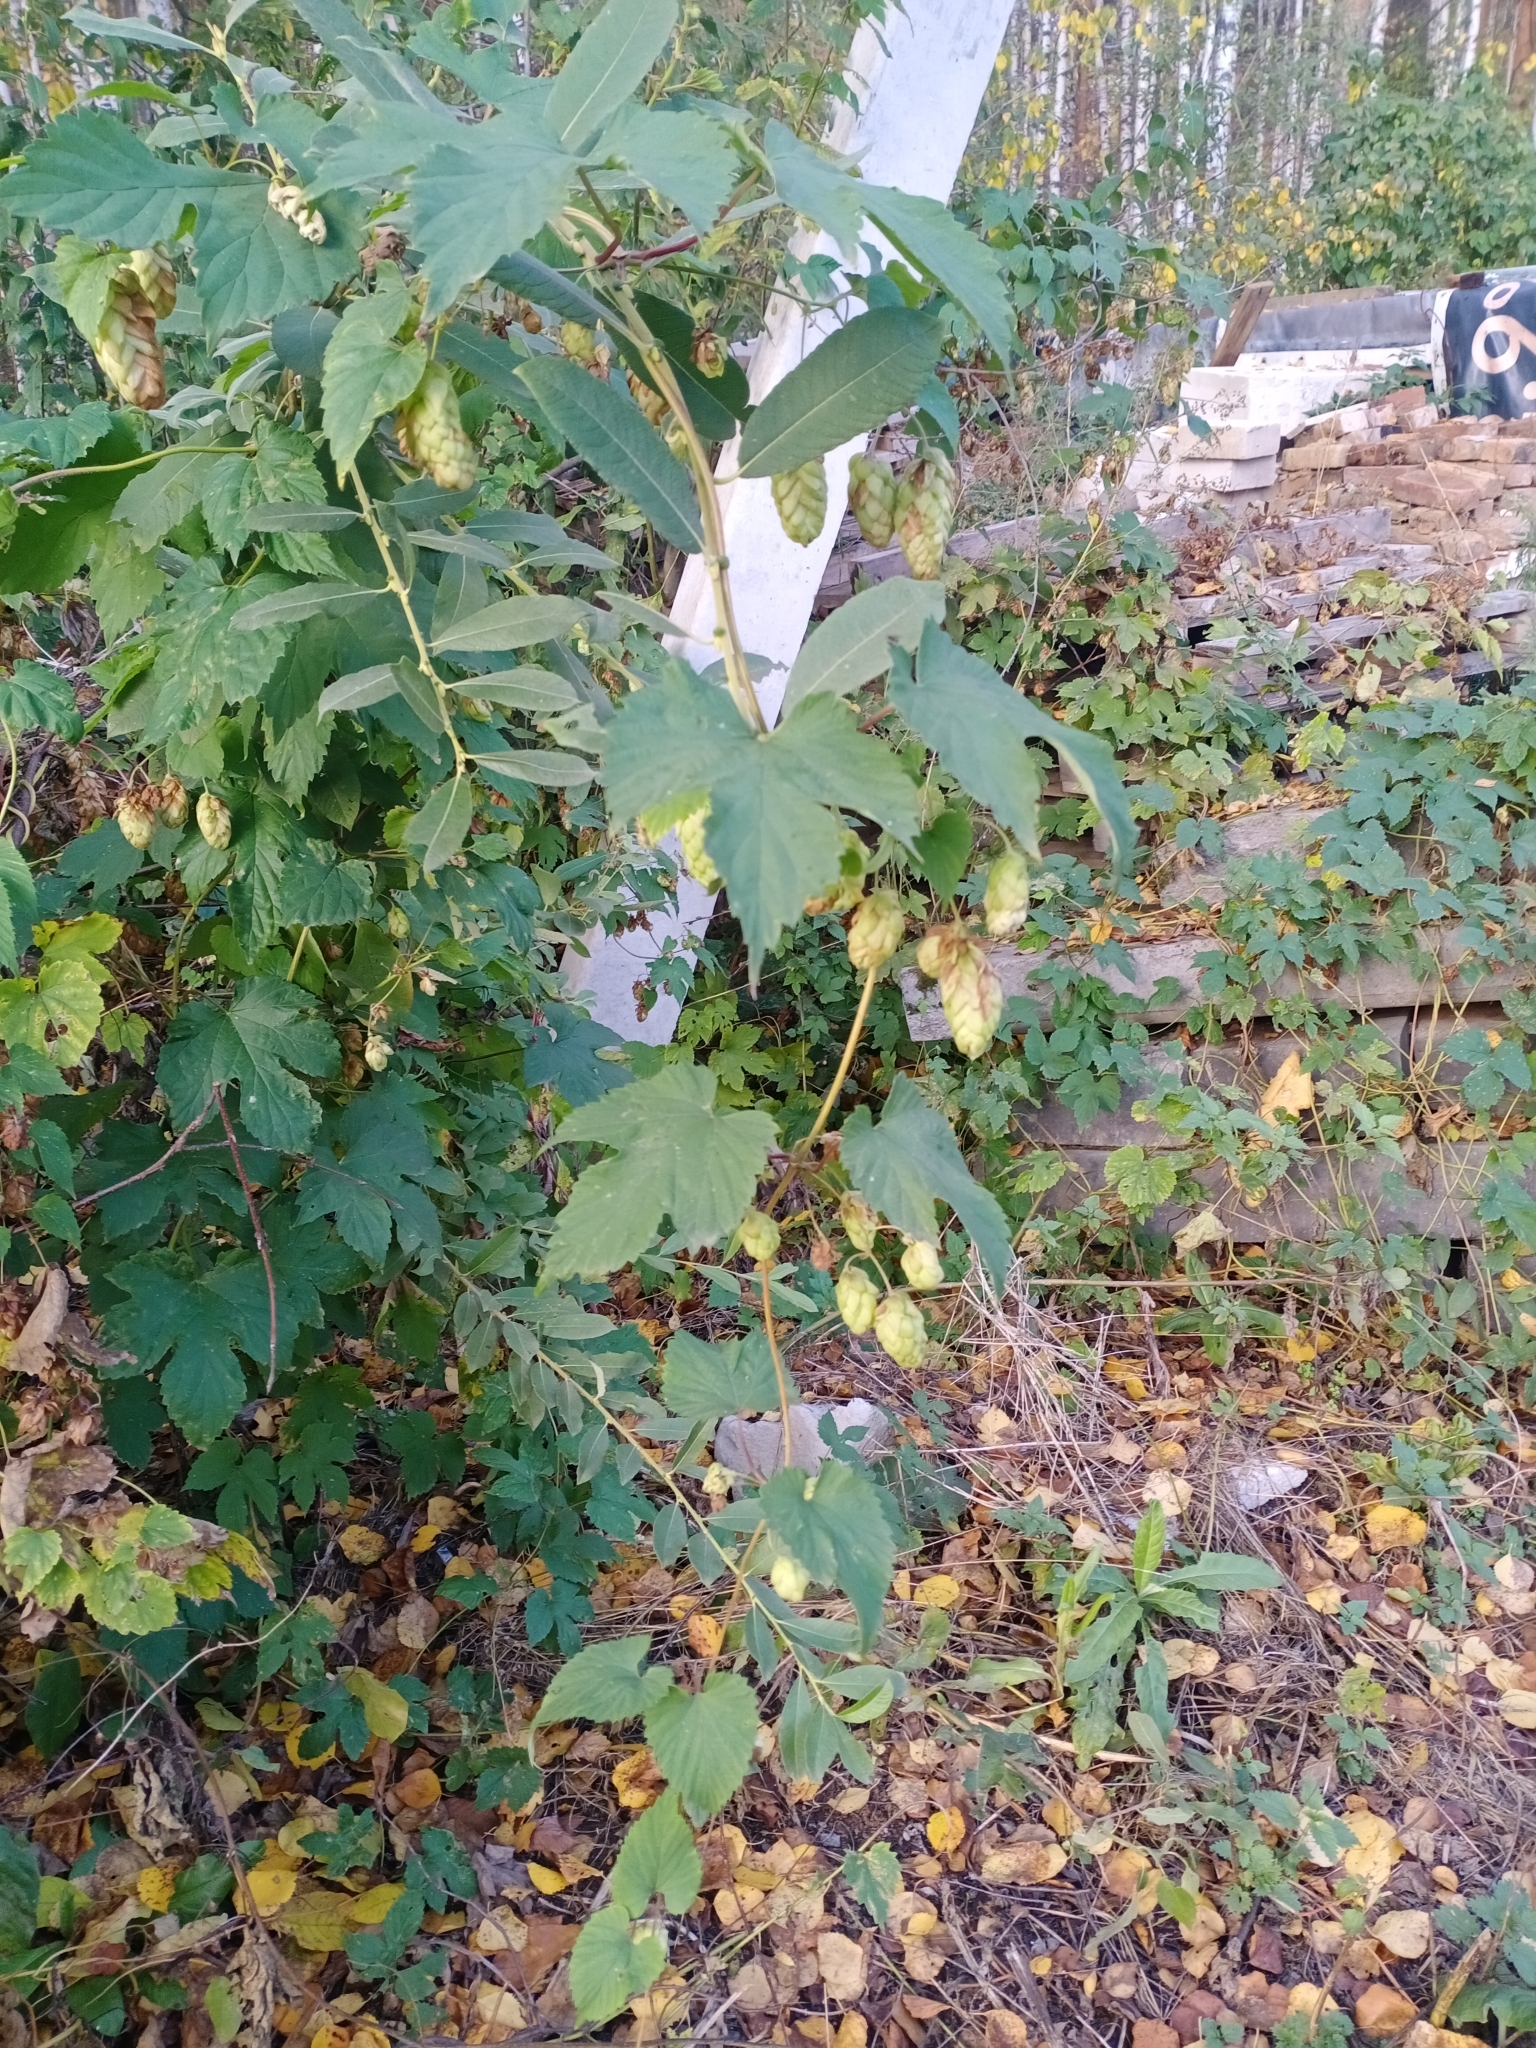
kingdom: Plantae
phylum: Tracheophyta
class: Magnoliopsida
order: Rosales
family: Cannabaceae
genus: Humulus
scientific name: Humulus lupulus
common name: Hop
